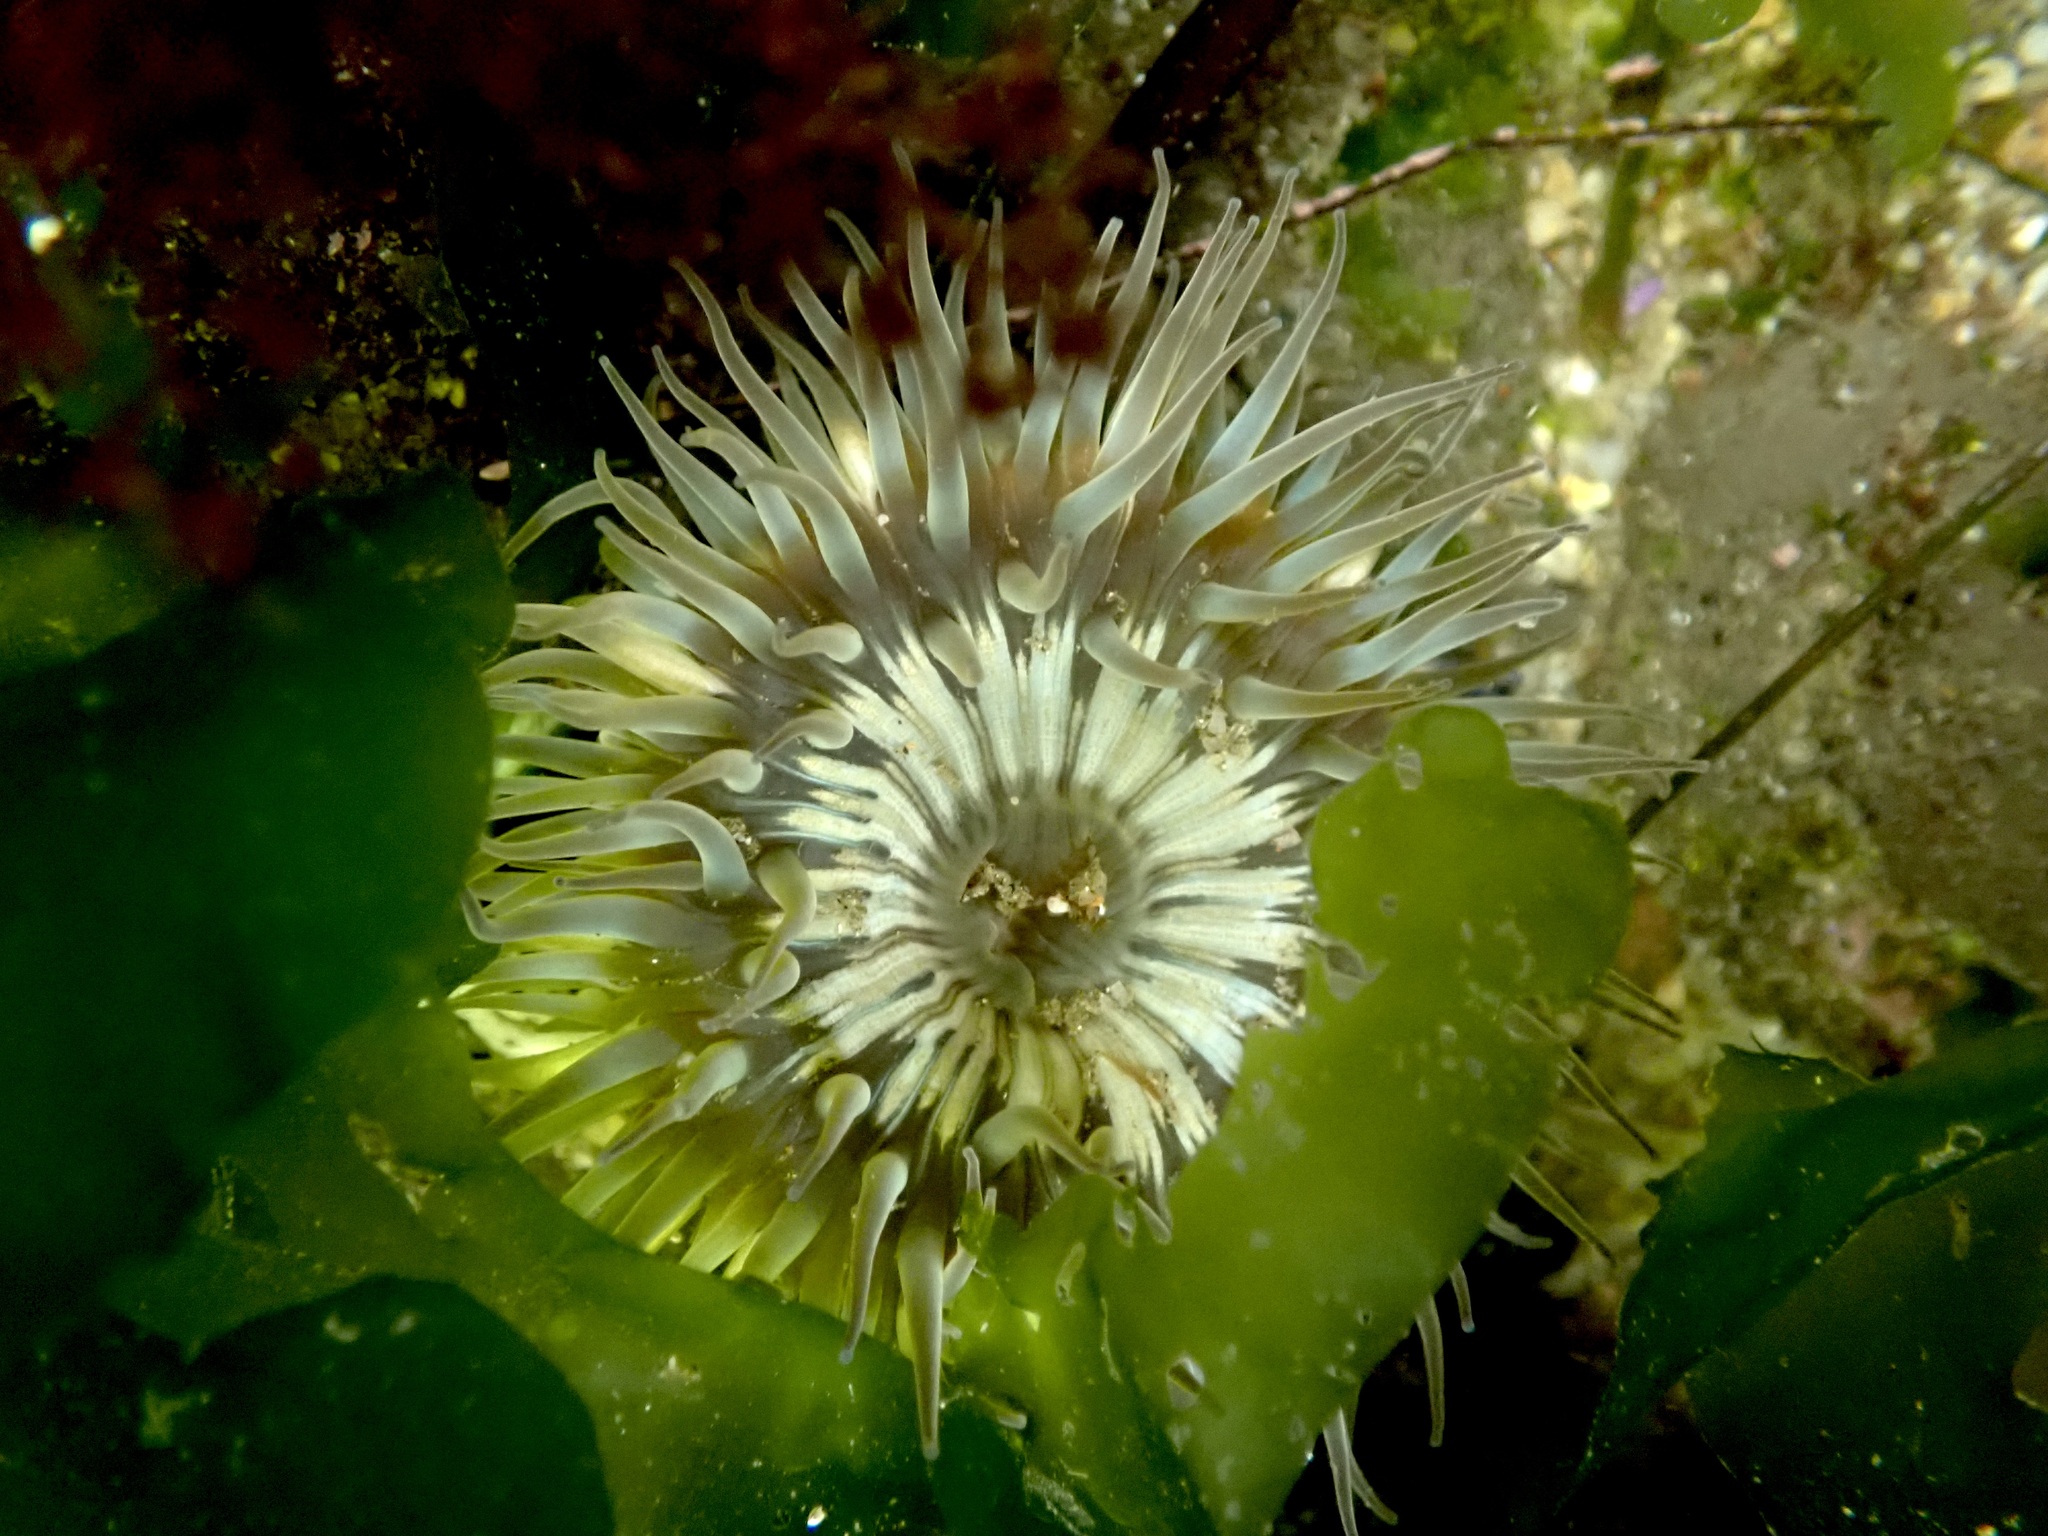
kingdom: Animalia
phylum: Cnidaria
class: Anthozoa
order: Actiniaria
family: Actiniidae
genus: Anthopleura
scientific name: Anthopleura sola
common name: Sun anemone
